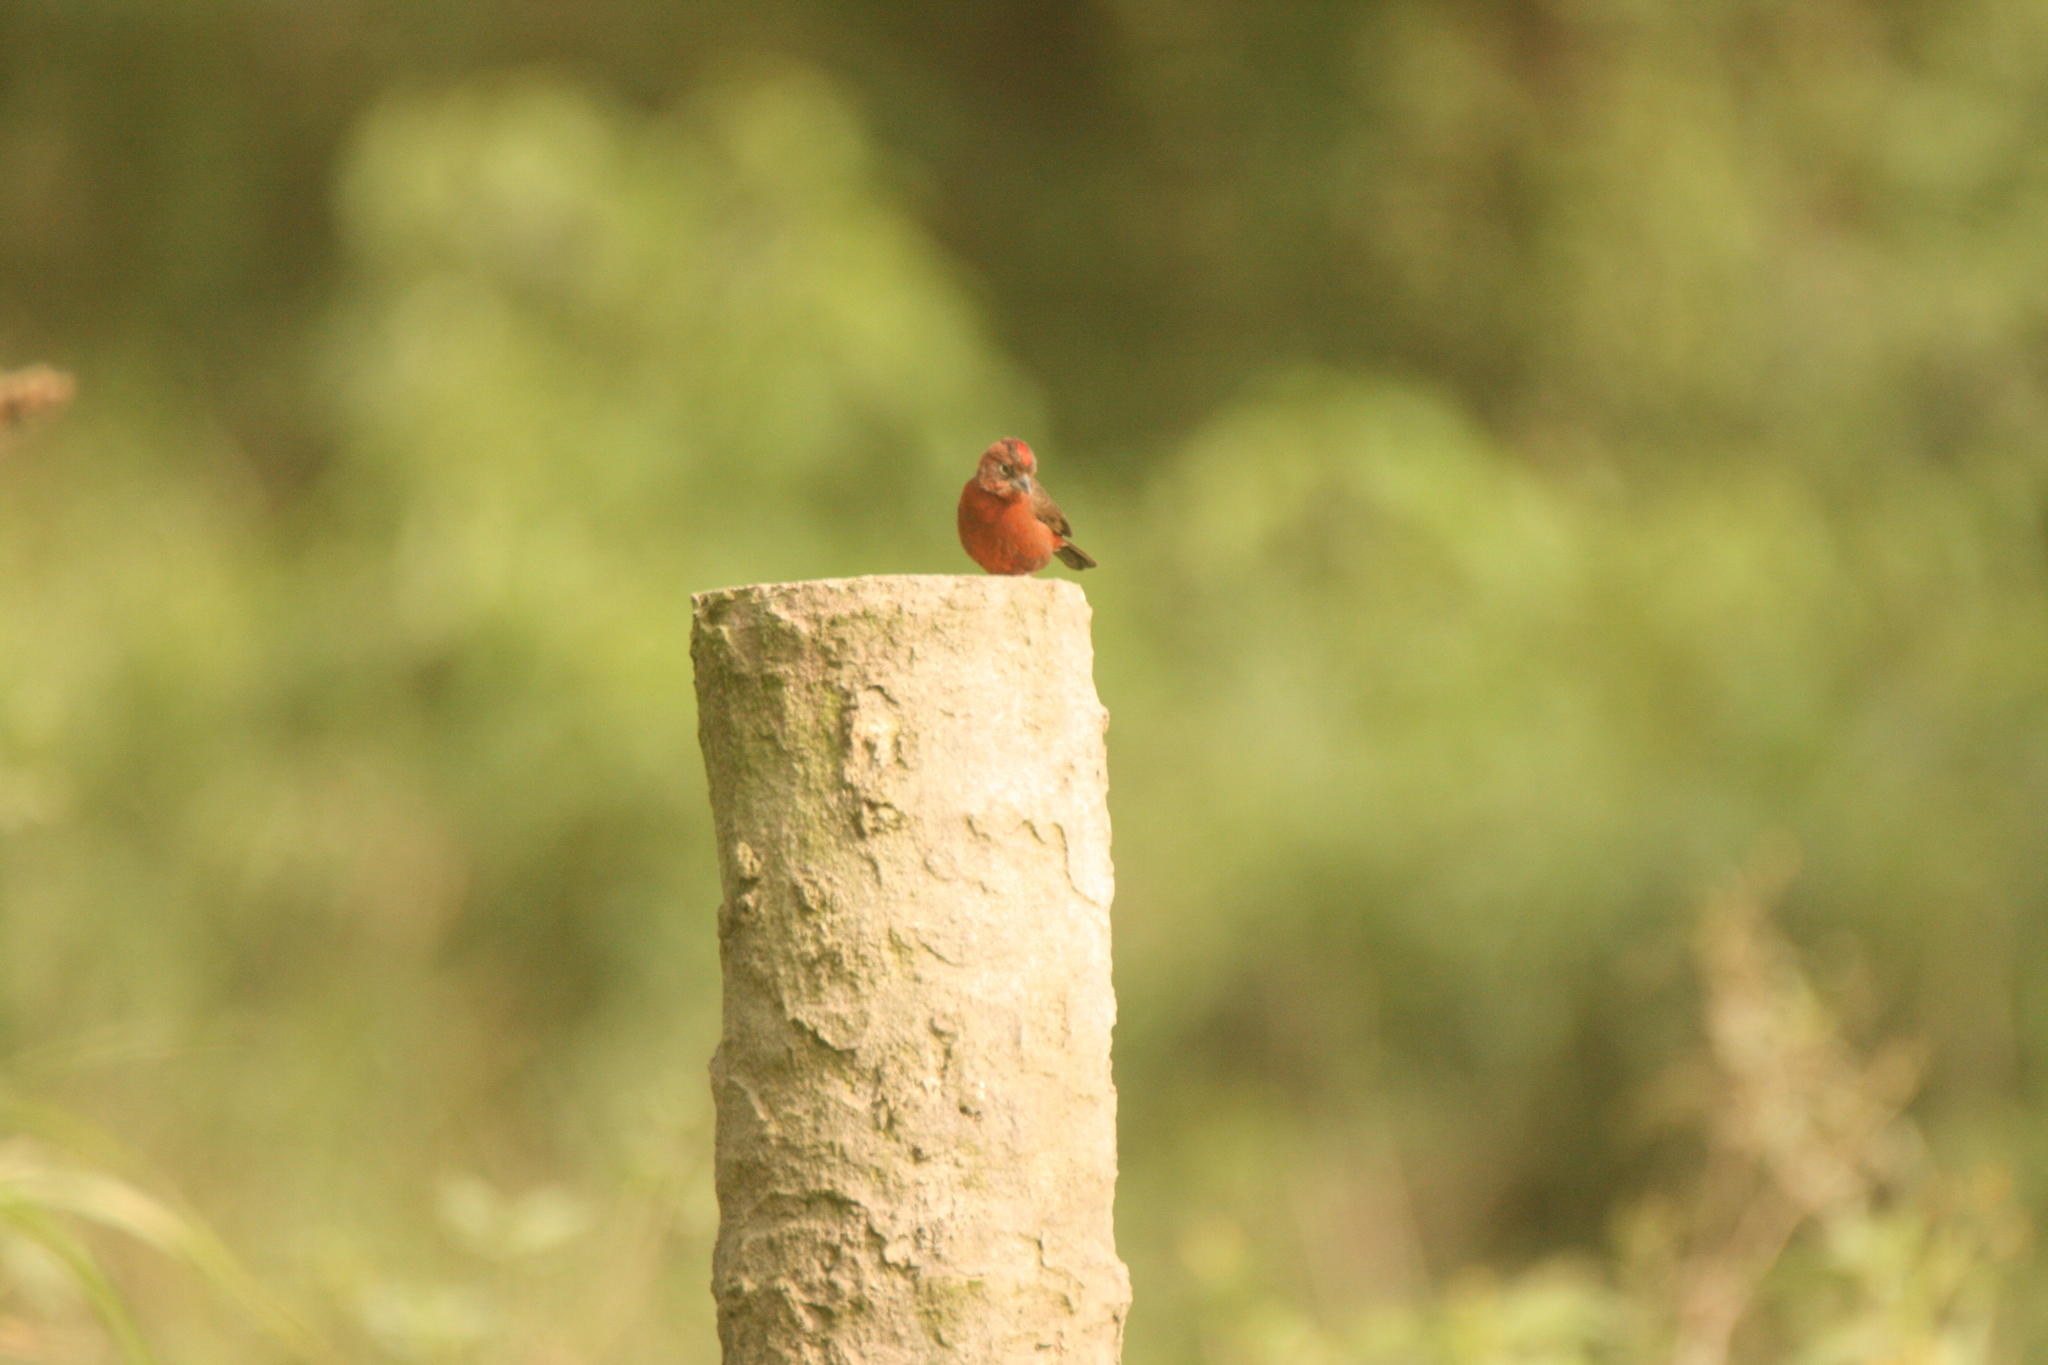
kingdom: Animalia
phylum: Chordata
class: Aves
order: Passeriformes
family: Thraupidae
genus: Coryphospingus
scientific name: Coryphospingus cucullatus
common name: Red pileated finch
